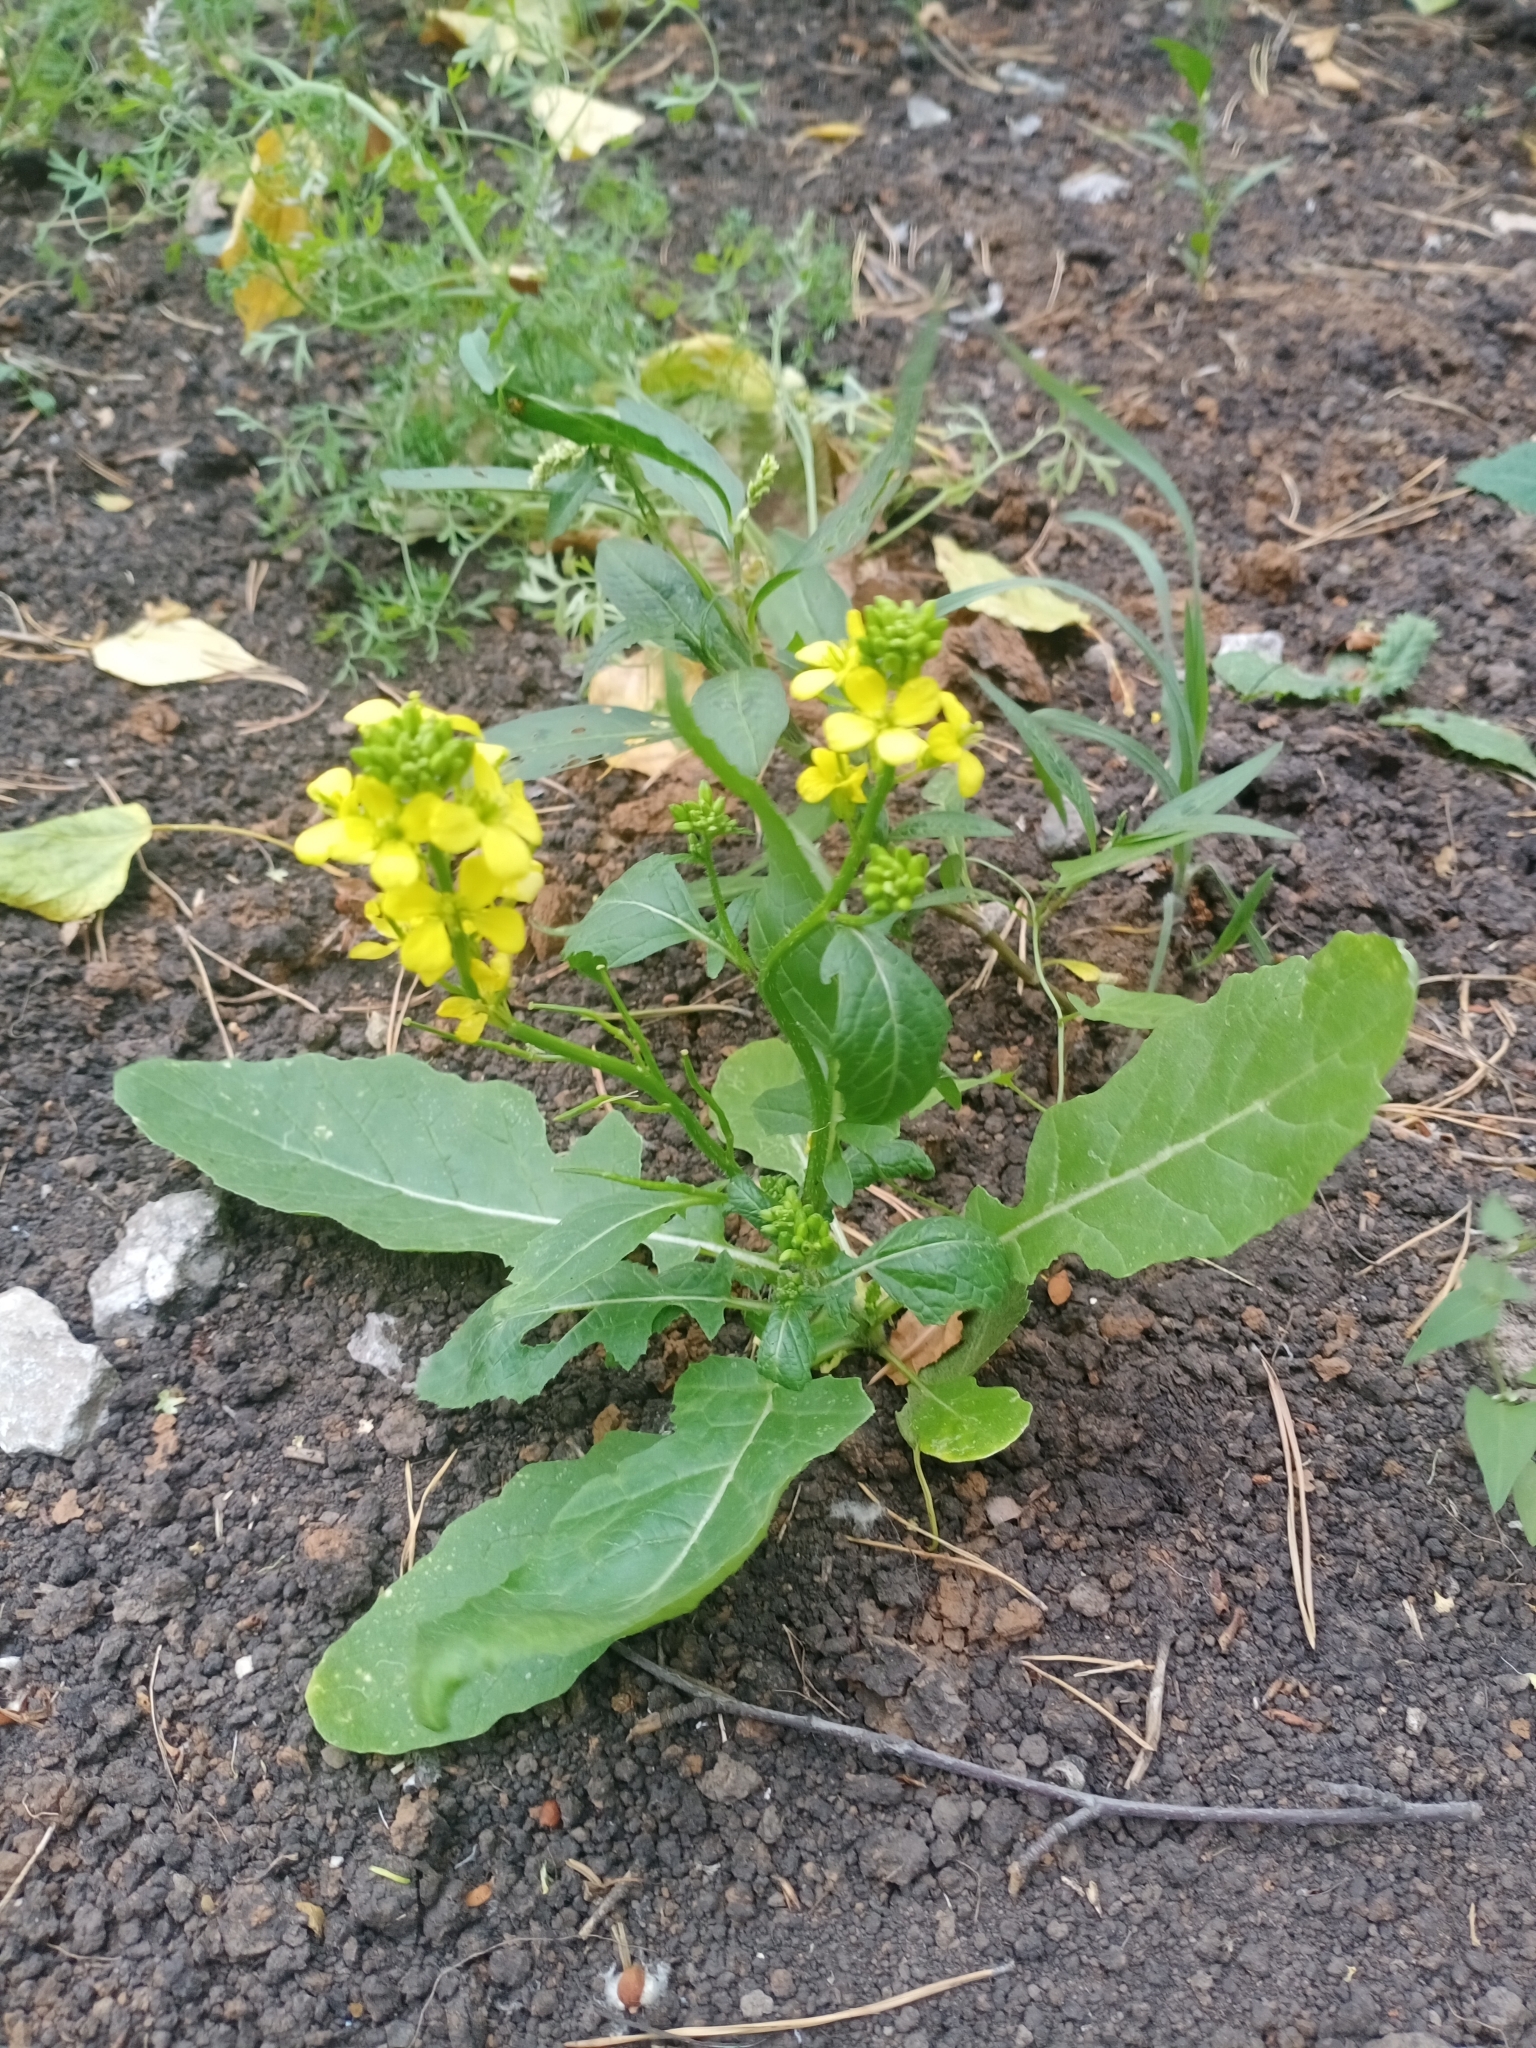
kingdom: Plantae
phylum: Tracheophyta
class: Magnoliopsida
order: Brassicales
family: Brassicaceae
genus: Sinapis
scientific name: Sinapis arvensis
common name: Charlock
